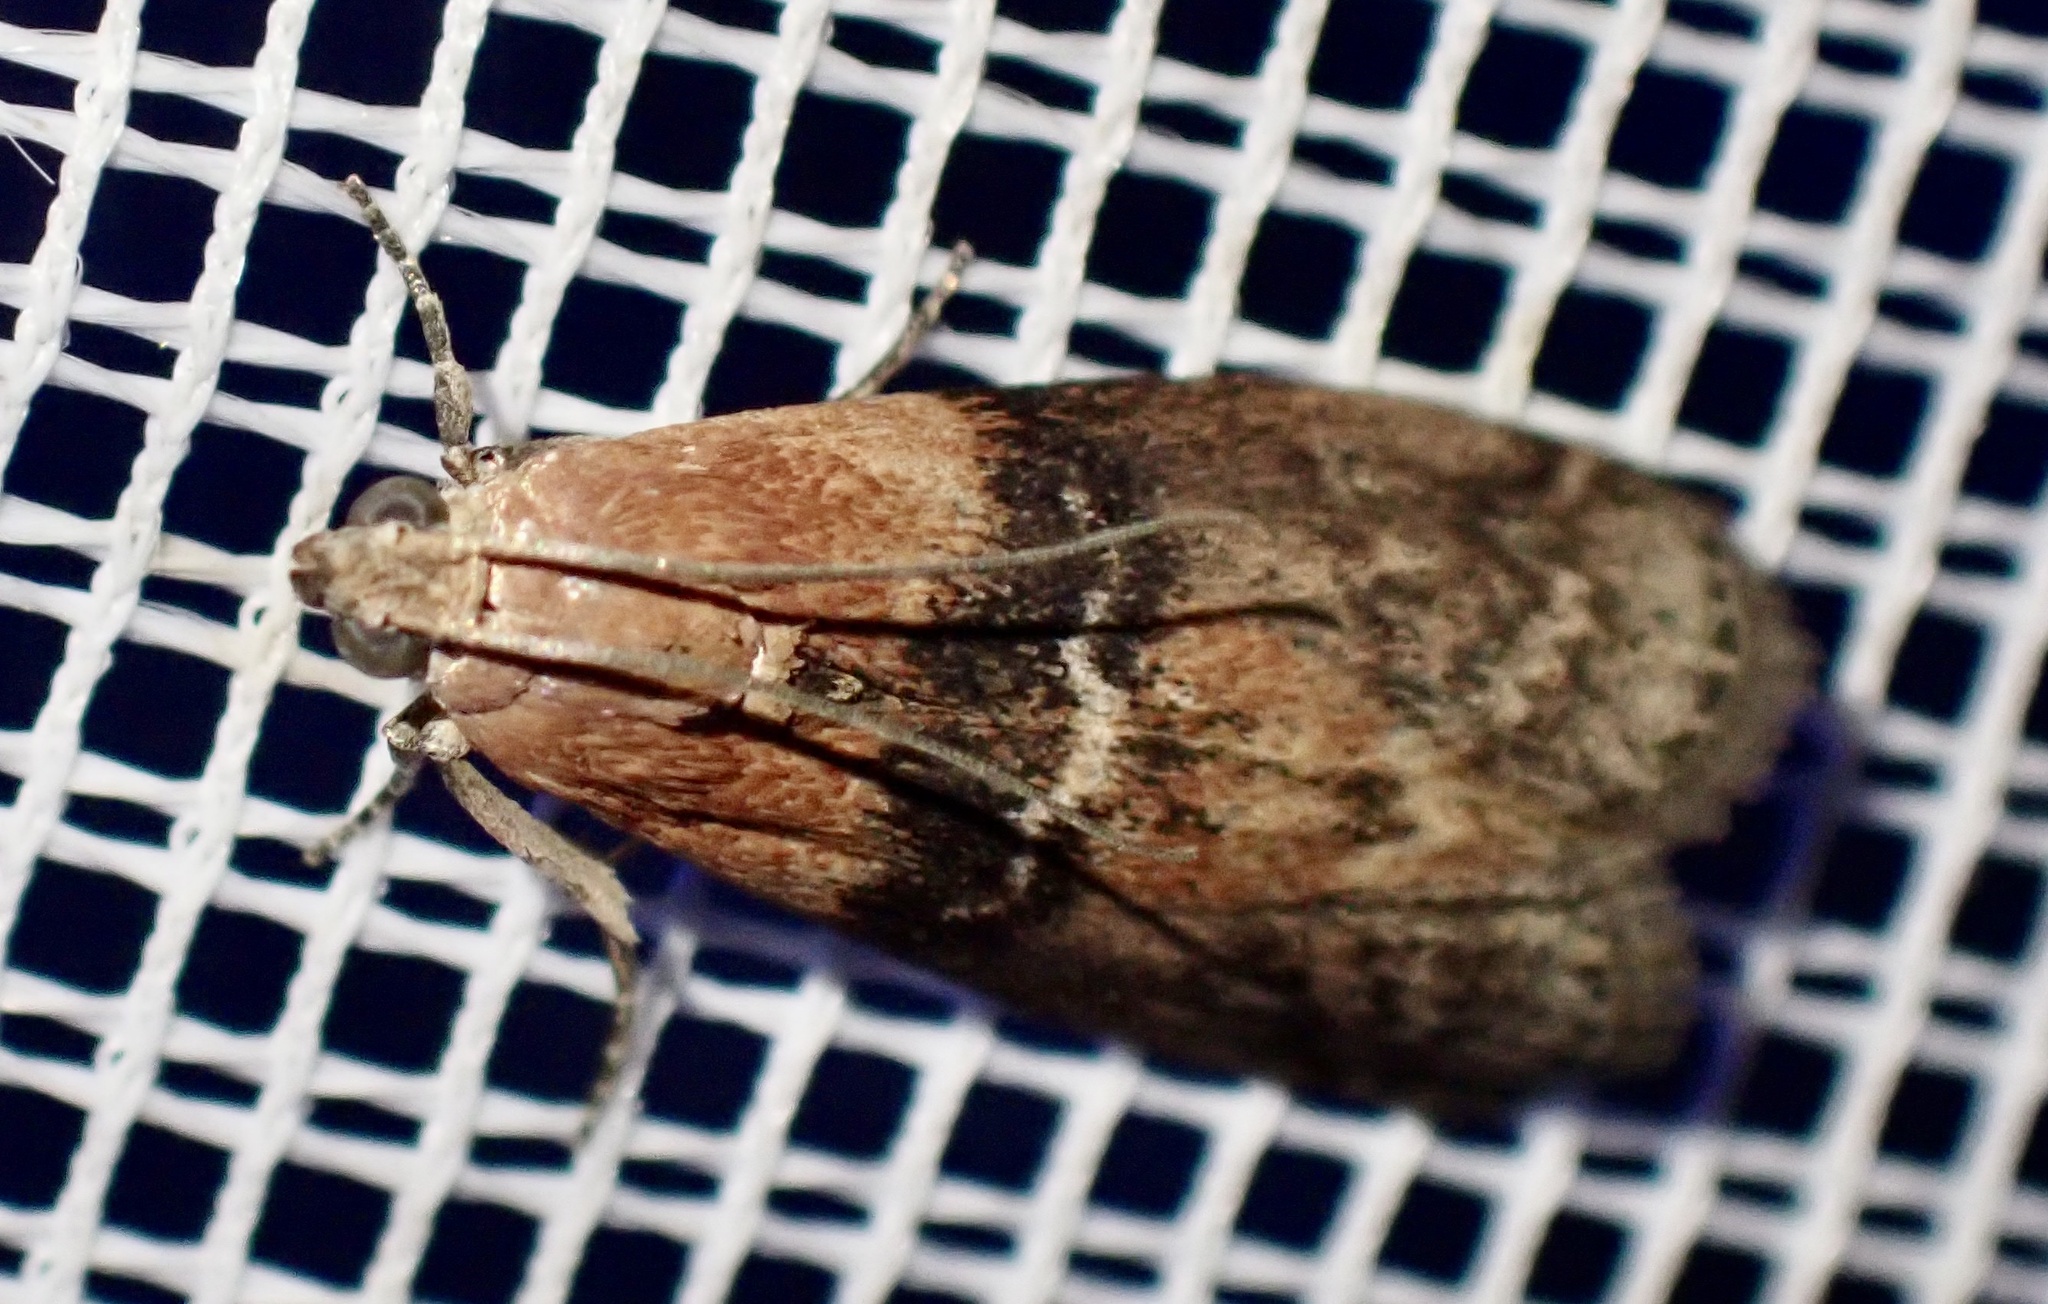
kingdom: Animalia
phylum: Arthropoda
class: Insecta
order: Lepidoptera
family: Pyralidae
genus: Sciota
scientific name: Sciota adelphella
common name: Willow knot-horn
